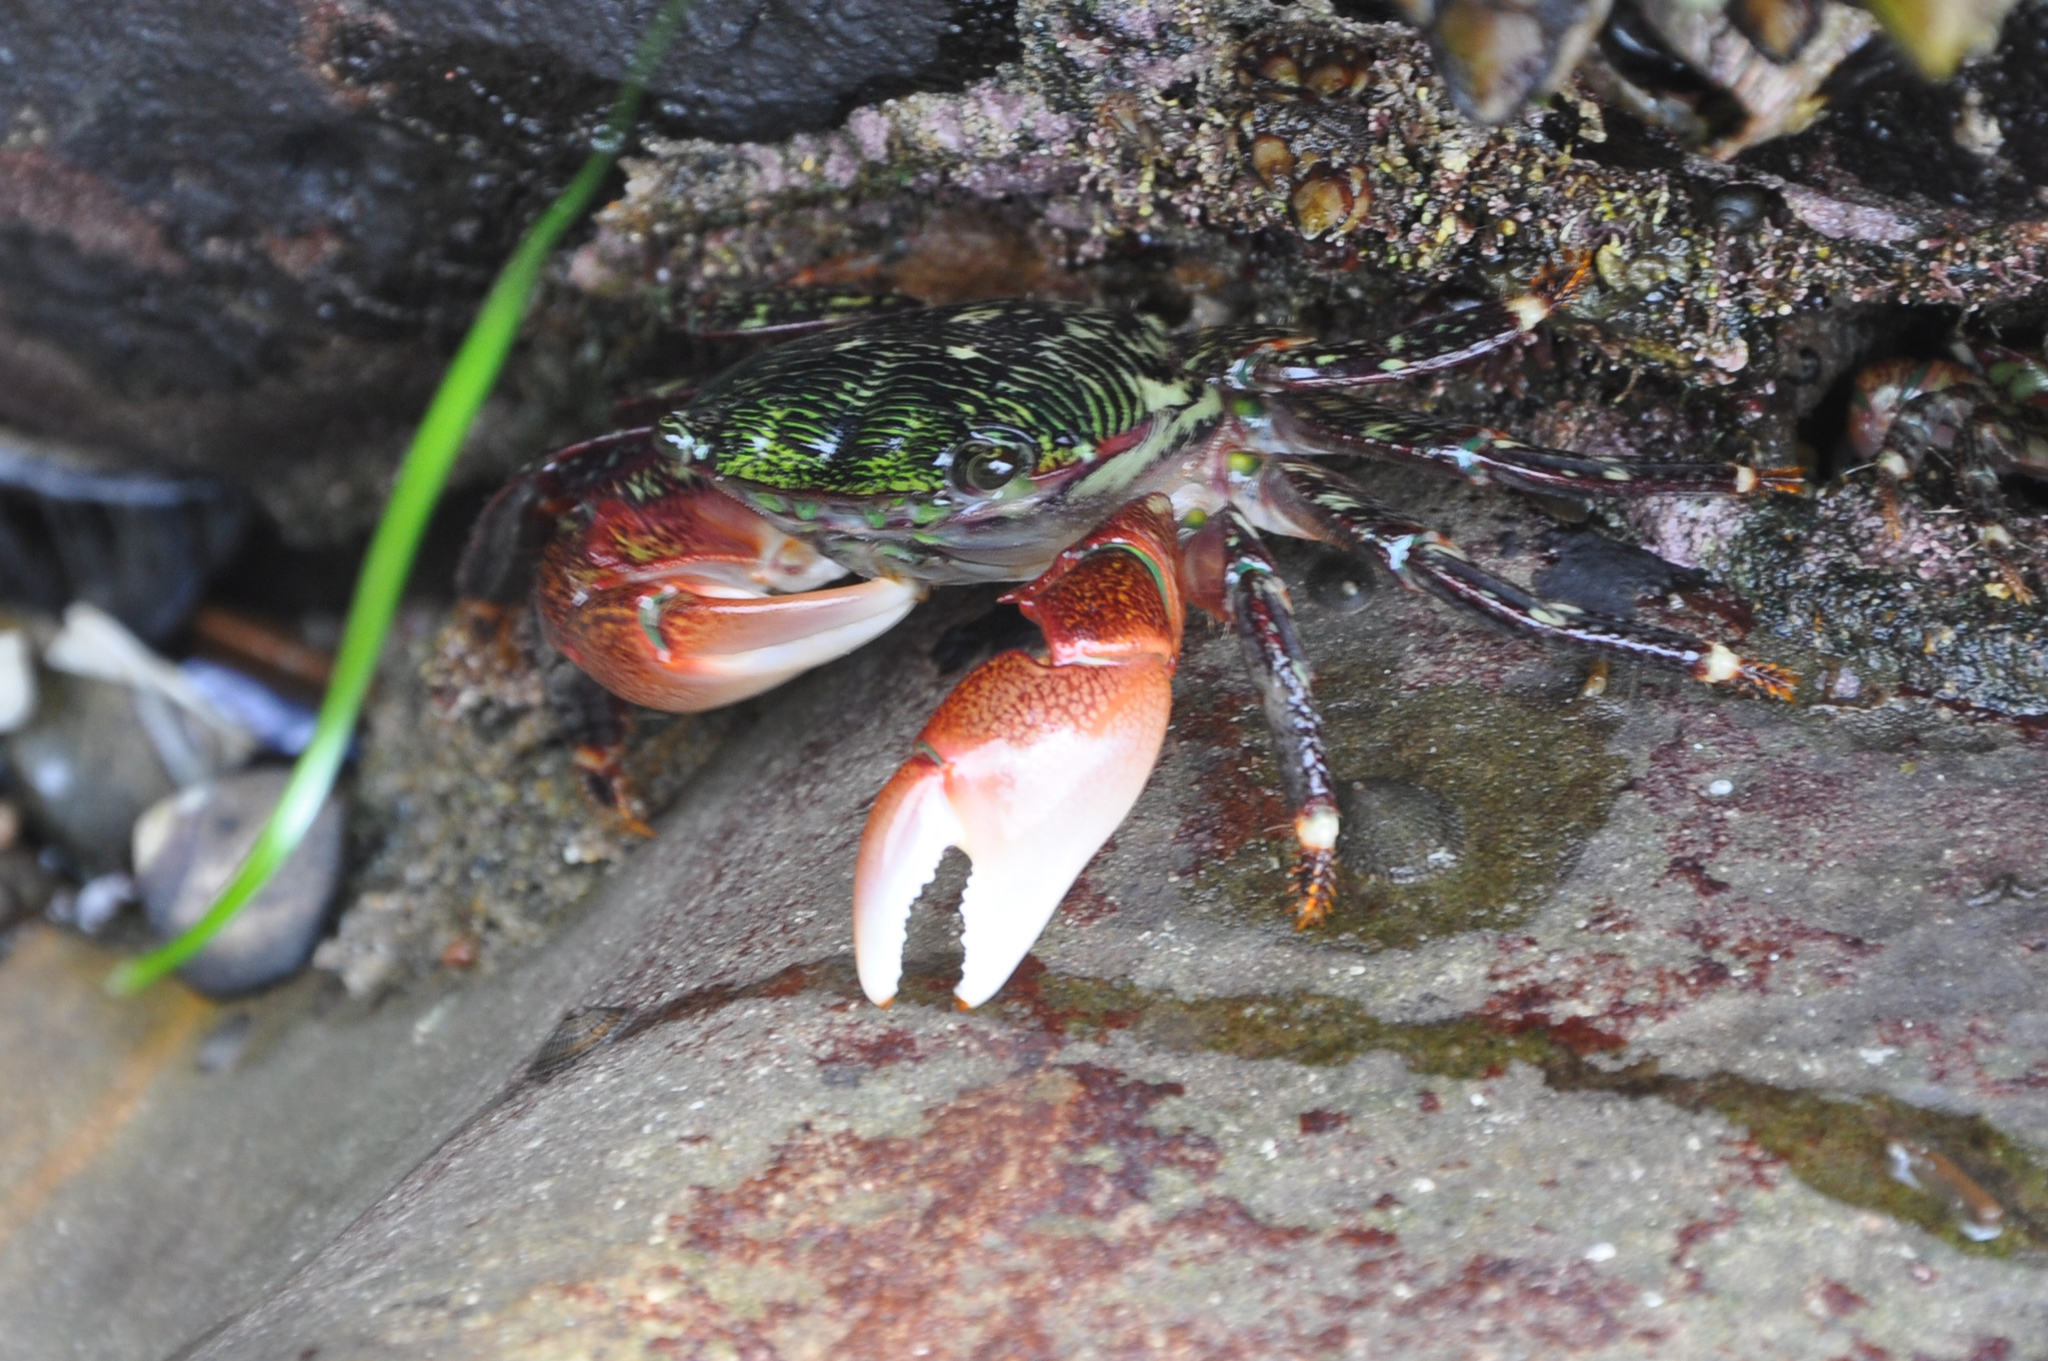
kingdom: Animalia
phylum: Arthropoda
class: Malacostraca
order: Decapoda
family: Grapsidae
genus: Pachygrapsus
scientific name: Pachygrapsus crassipes
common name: Striped shore crab
